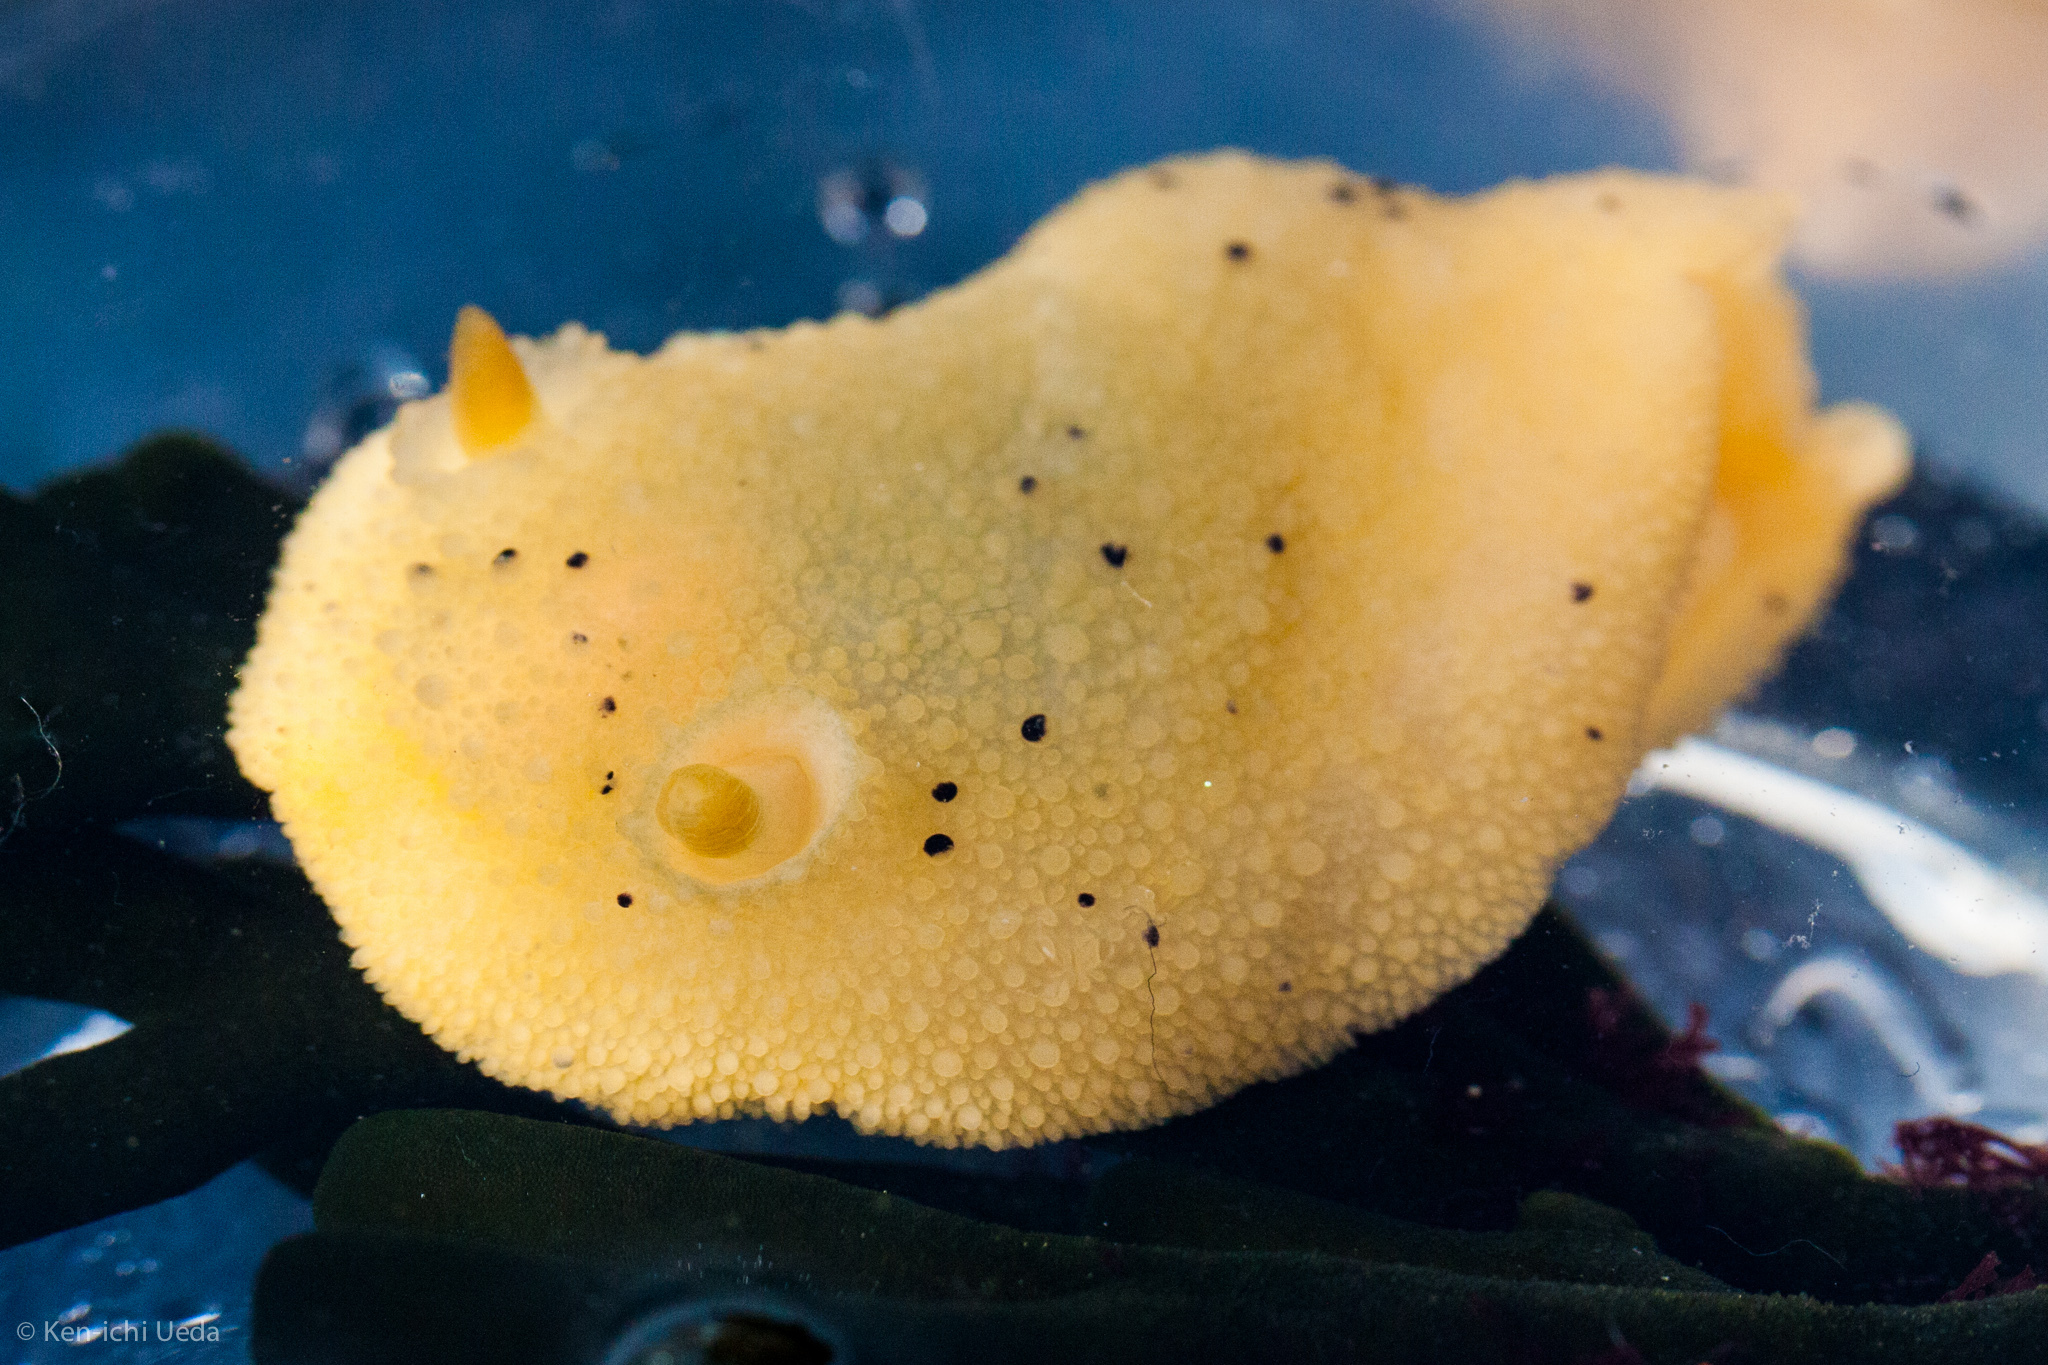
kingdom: Animalia
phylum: Mollusca
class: Gastropoda
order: Nudibranchia
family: Dorididae
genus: Doris
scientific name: Doris montereyensis
